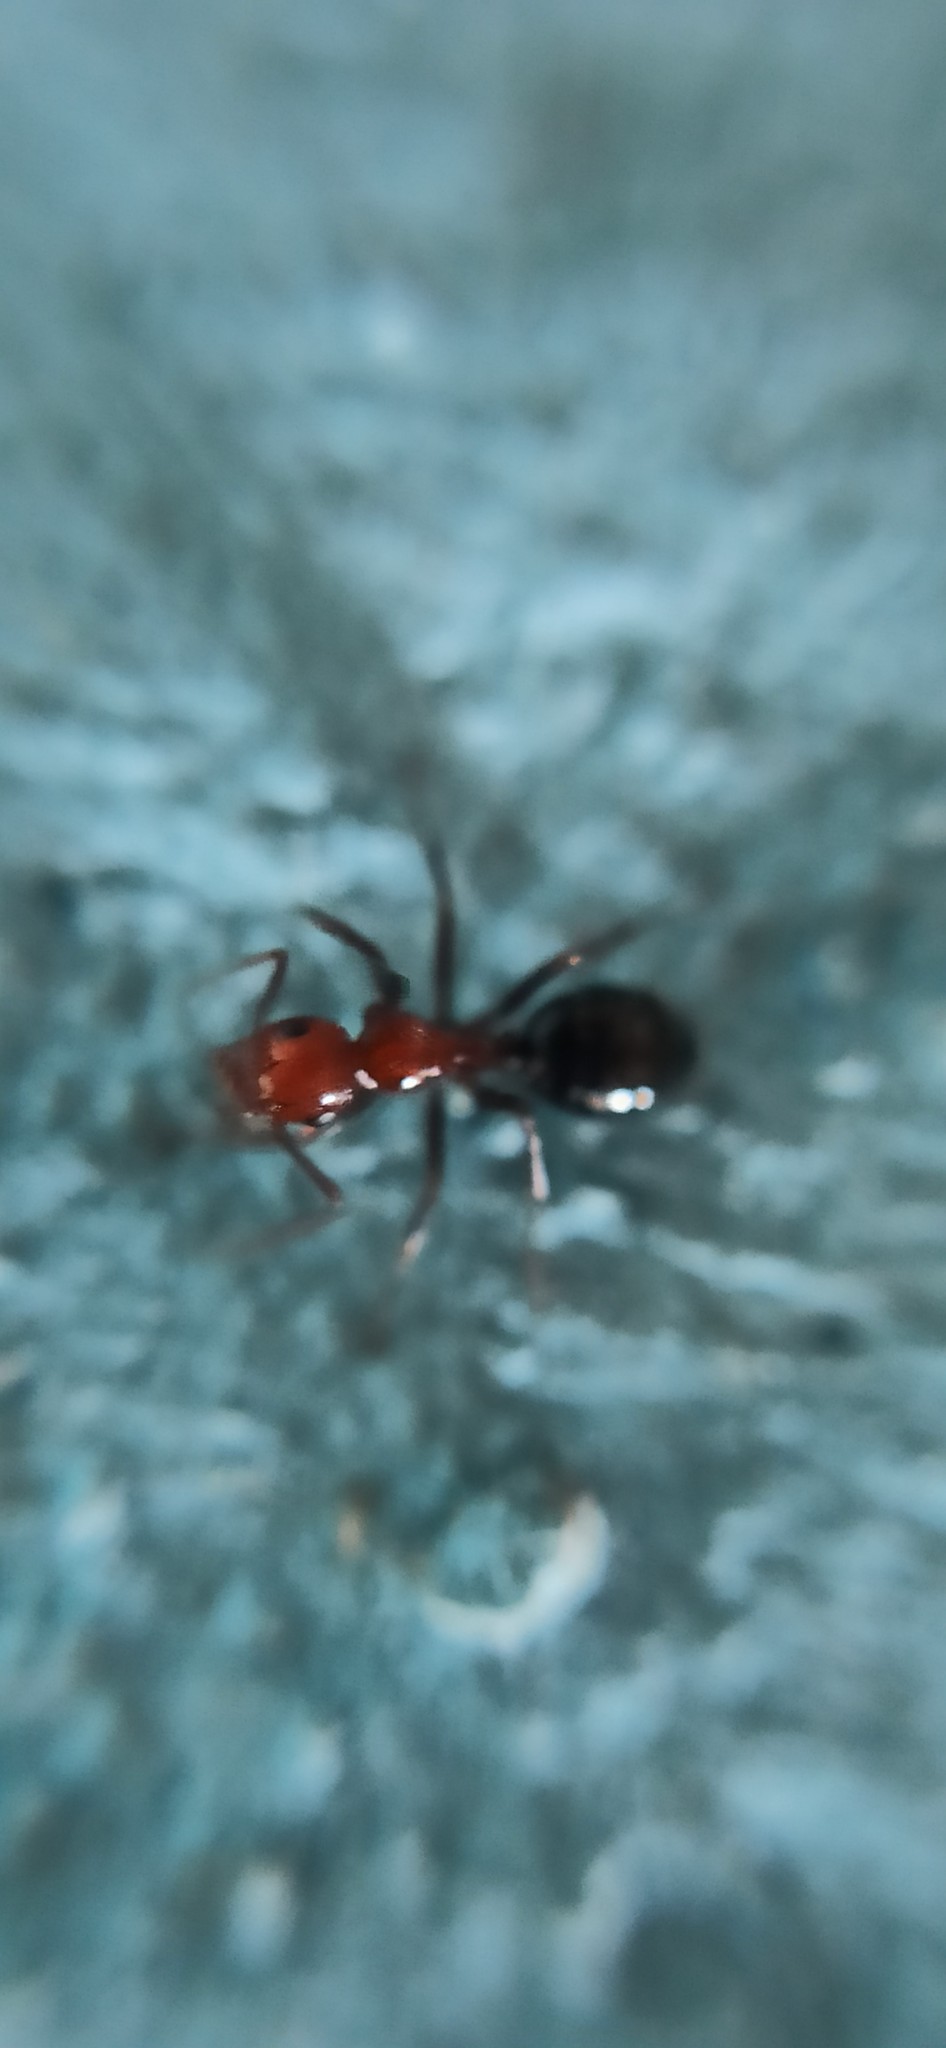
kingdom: Animalia
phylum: Arthropoda
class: Insecta
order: Hymenoptera
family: Formicidae
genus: Camponotus
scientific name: Camponotus lateralis
